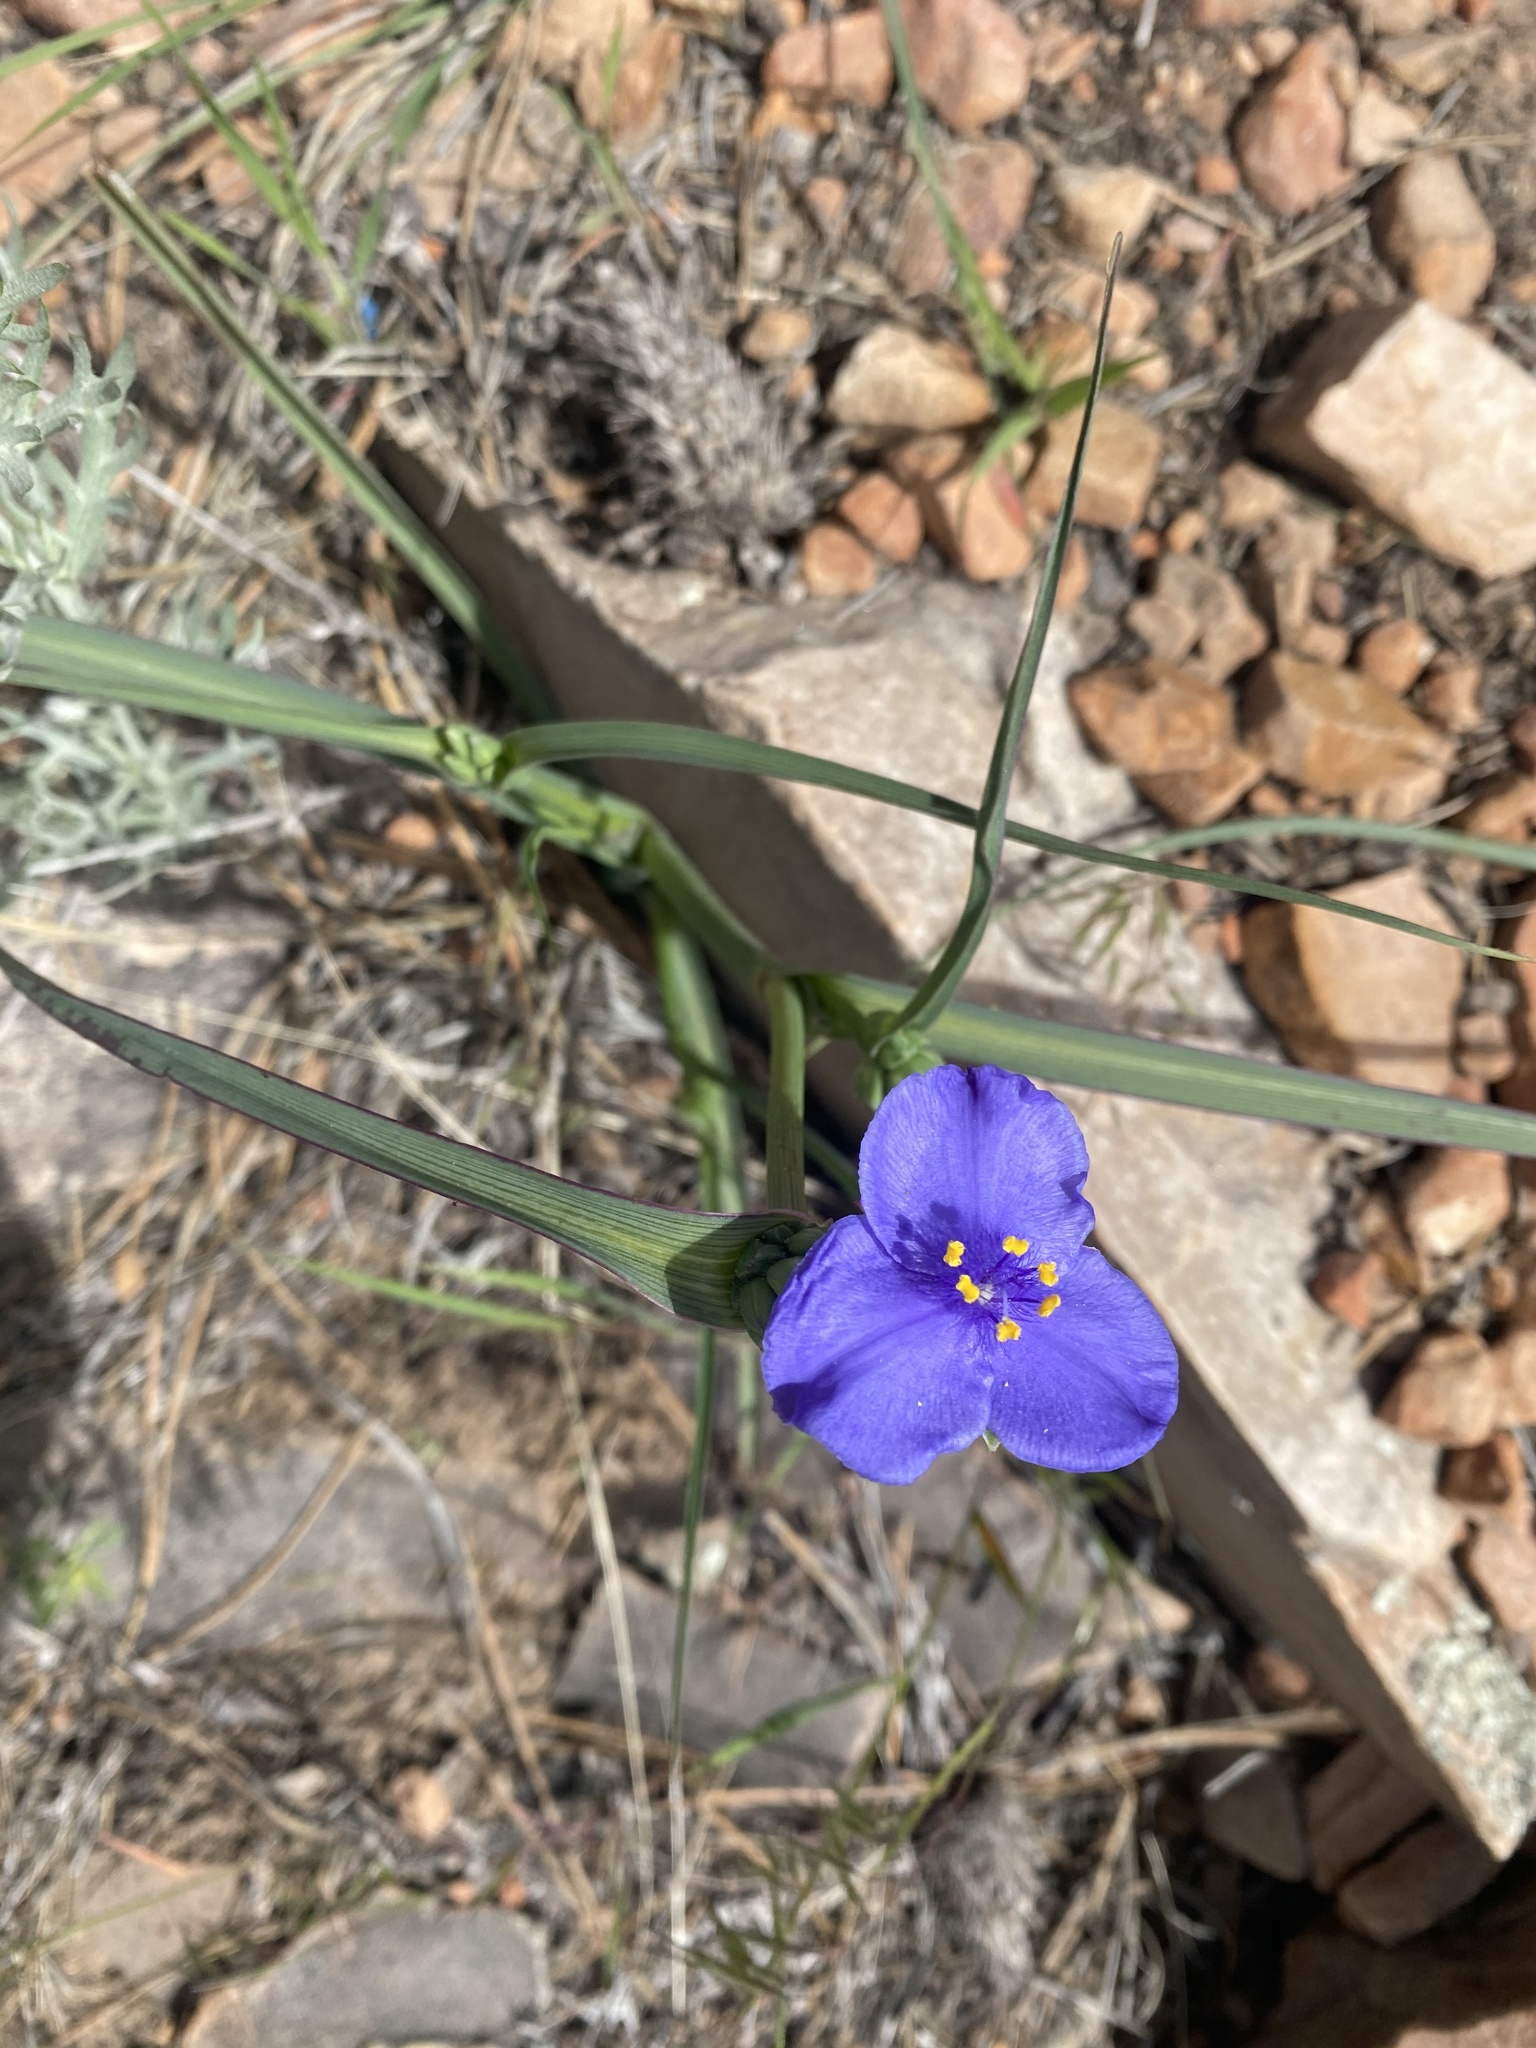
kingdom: Plantae
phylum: Tracheophyta
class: Liliopsida
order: Commelinales
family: Commelinaceae
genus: Tradescantia
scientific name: Tradescantia occidentalis
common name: Prairie spiderwort
